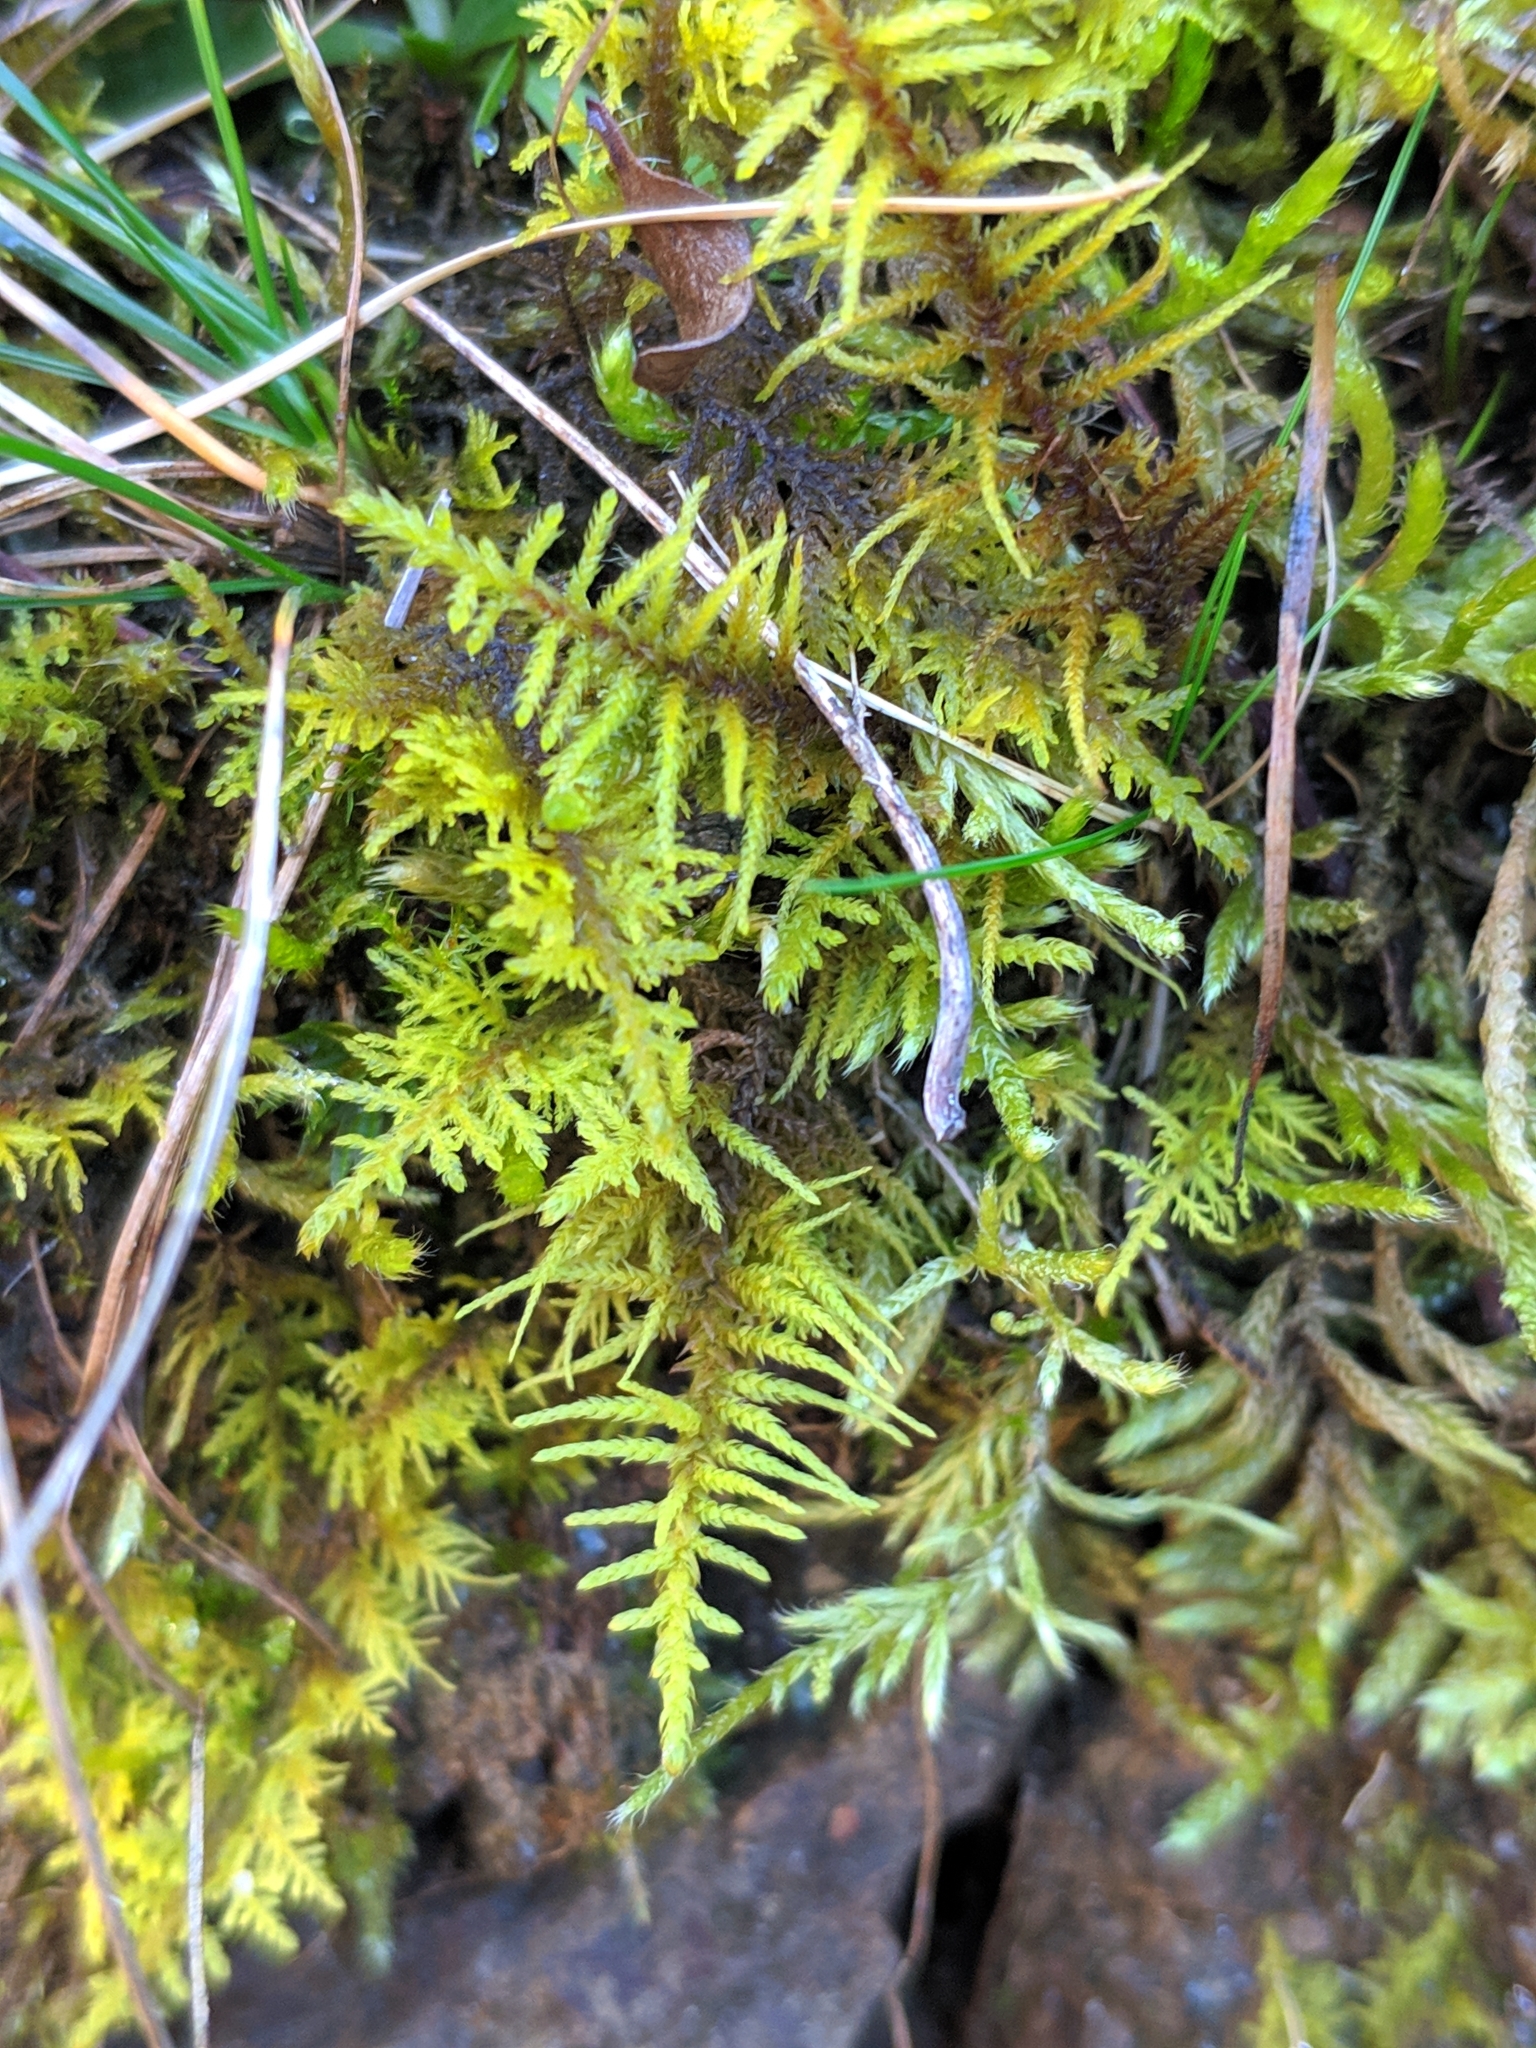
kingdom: Plantae
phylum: Bryophyta
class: Bryopsida
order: Hypnales
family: Thuidiaceae
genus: Abietinella
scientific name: Abietinella abietina
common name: Wiry fern moss
